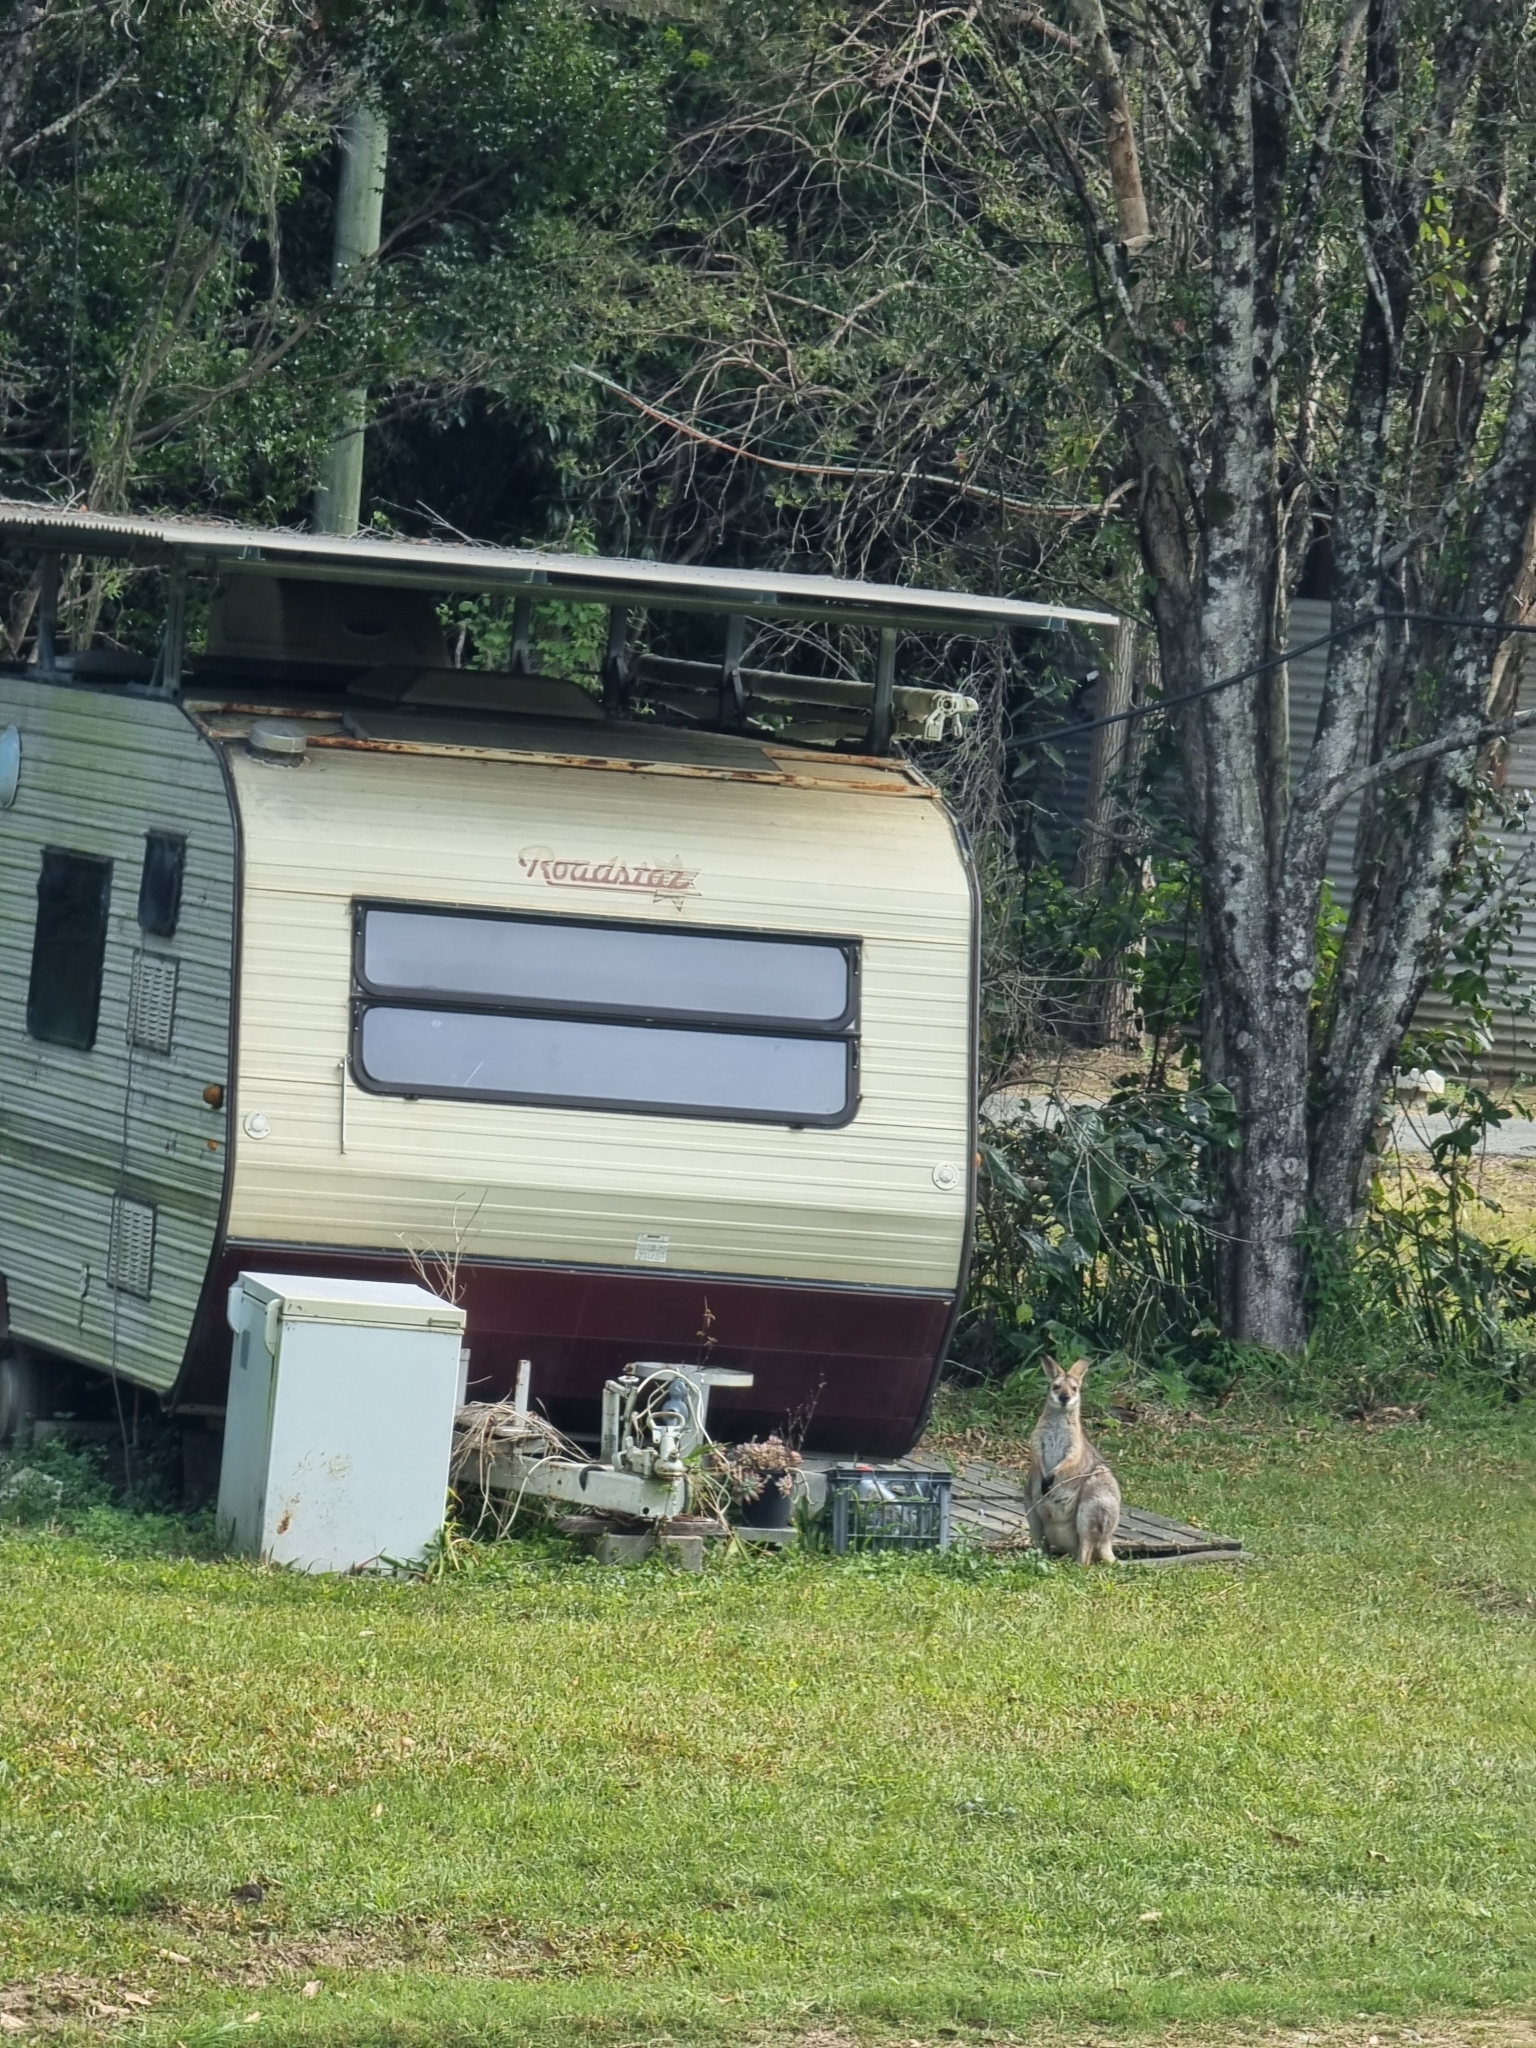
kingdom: Animalia
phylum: Chordata
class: Mammalia
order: Diprotodontia
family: Macropodidae
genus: Notamacropus
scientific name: Notamacropus rufogriseus
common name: Red-necked wallaby
